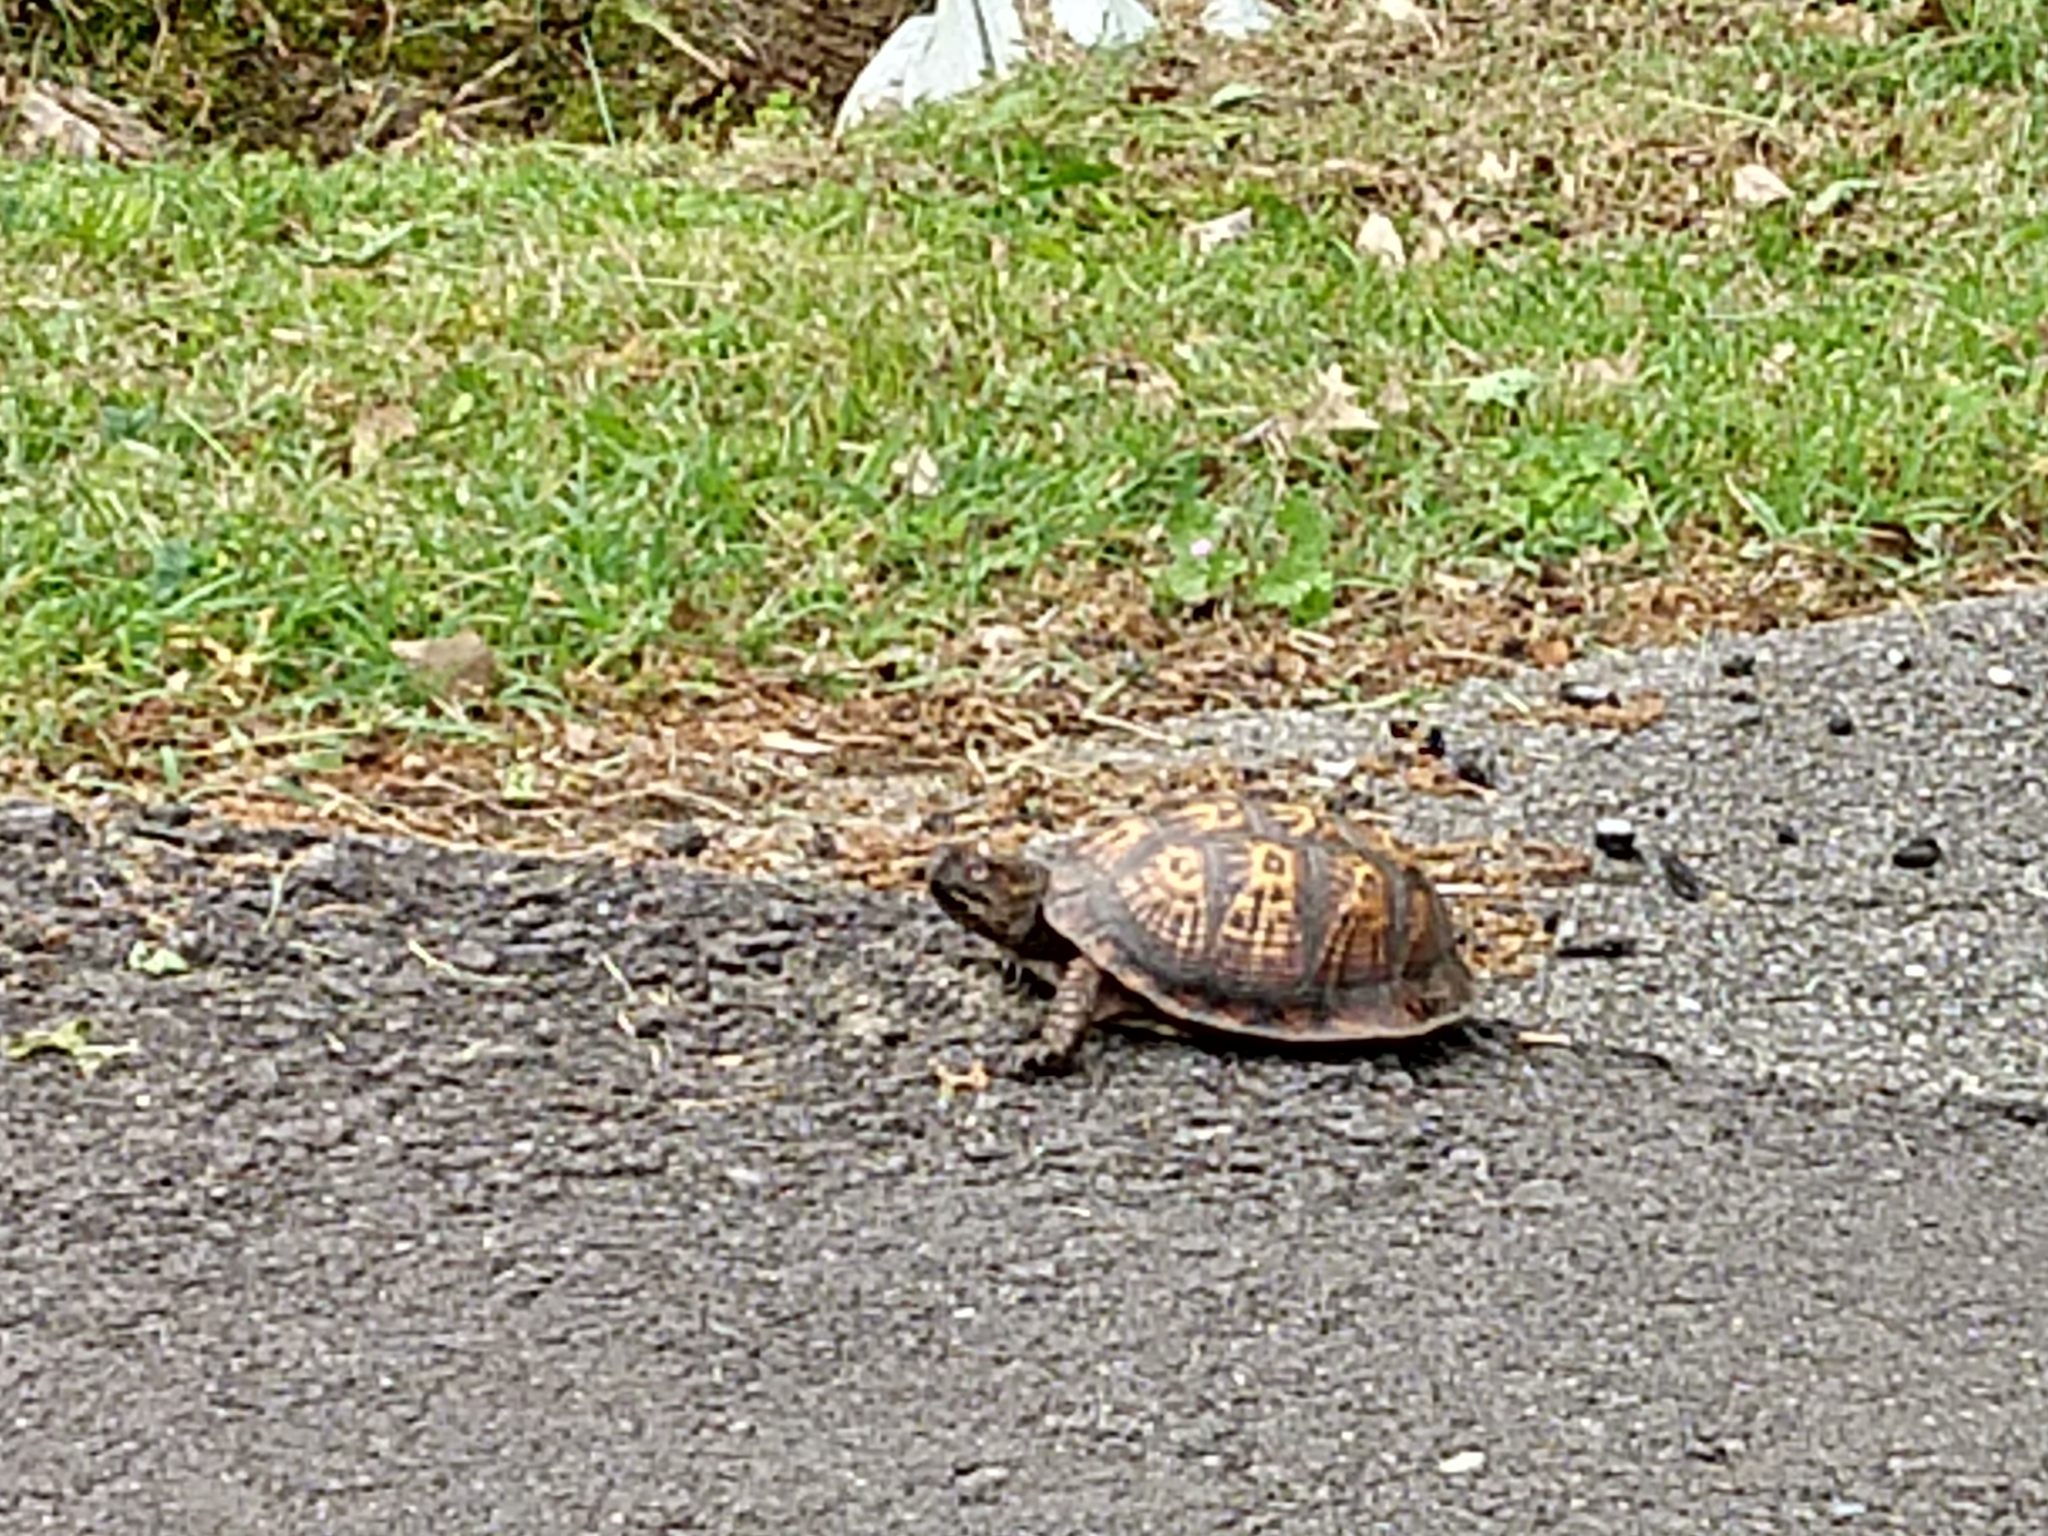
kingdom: Animalia
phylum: Chordata
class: Testudines
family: Emydidae
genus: Terrapene
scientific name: Terrapene carolina
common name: Common box turtle
